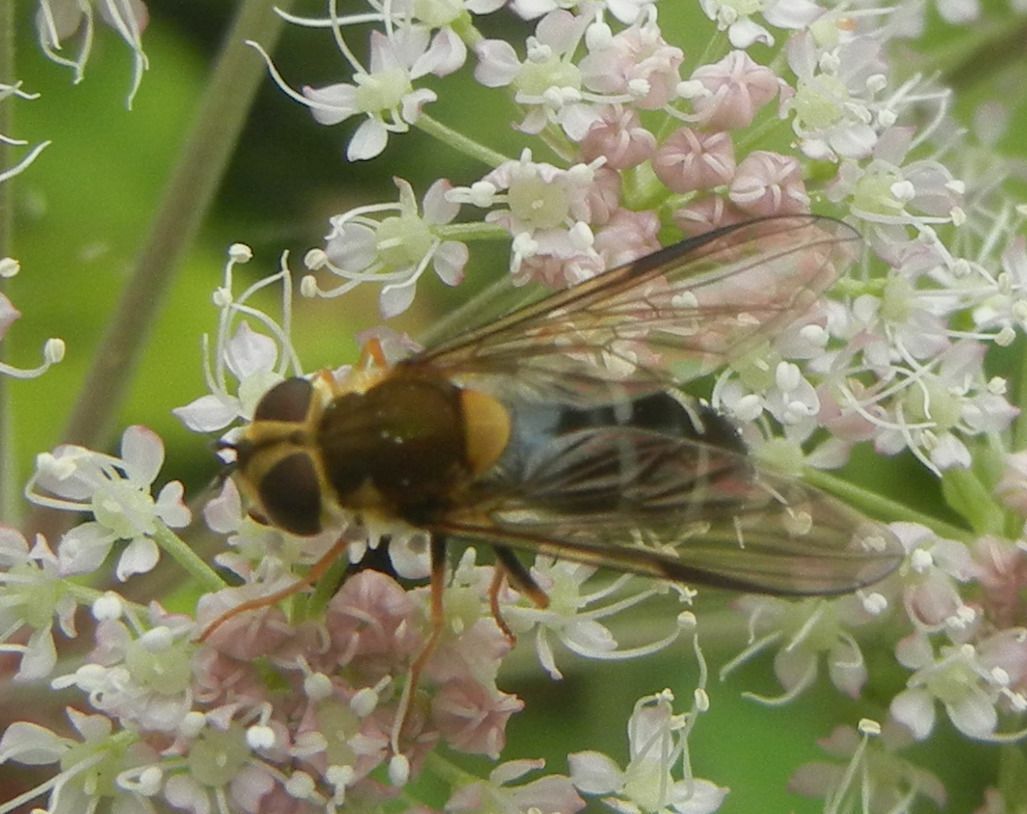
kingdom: Animalia
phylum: Arthropoda
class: Insecta
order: Diptera
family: Syrphidae
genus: Leucozona
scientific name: Leucozona glaucia
